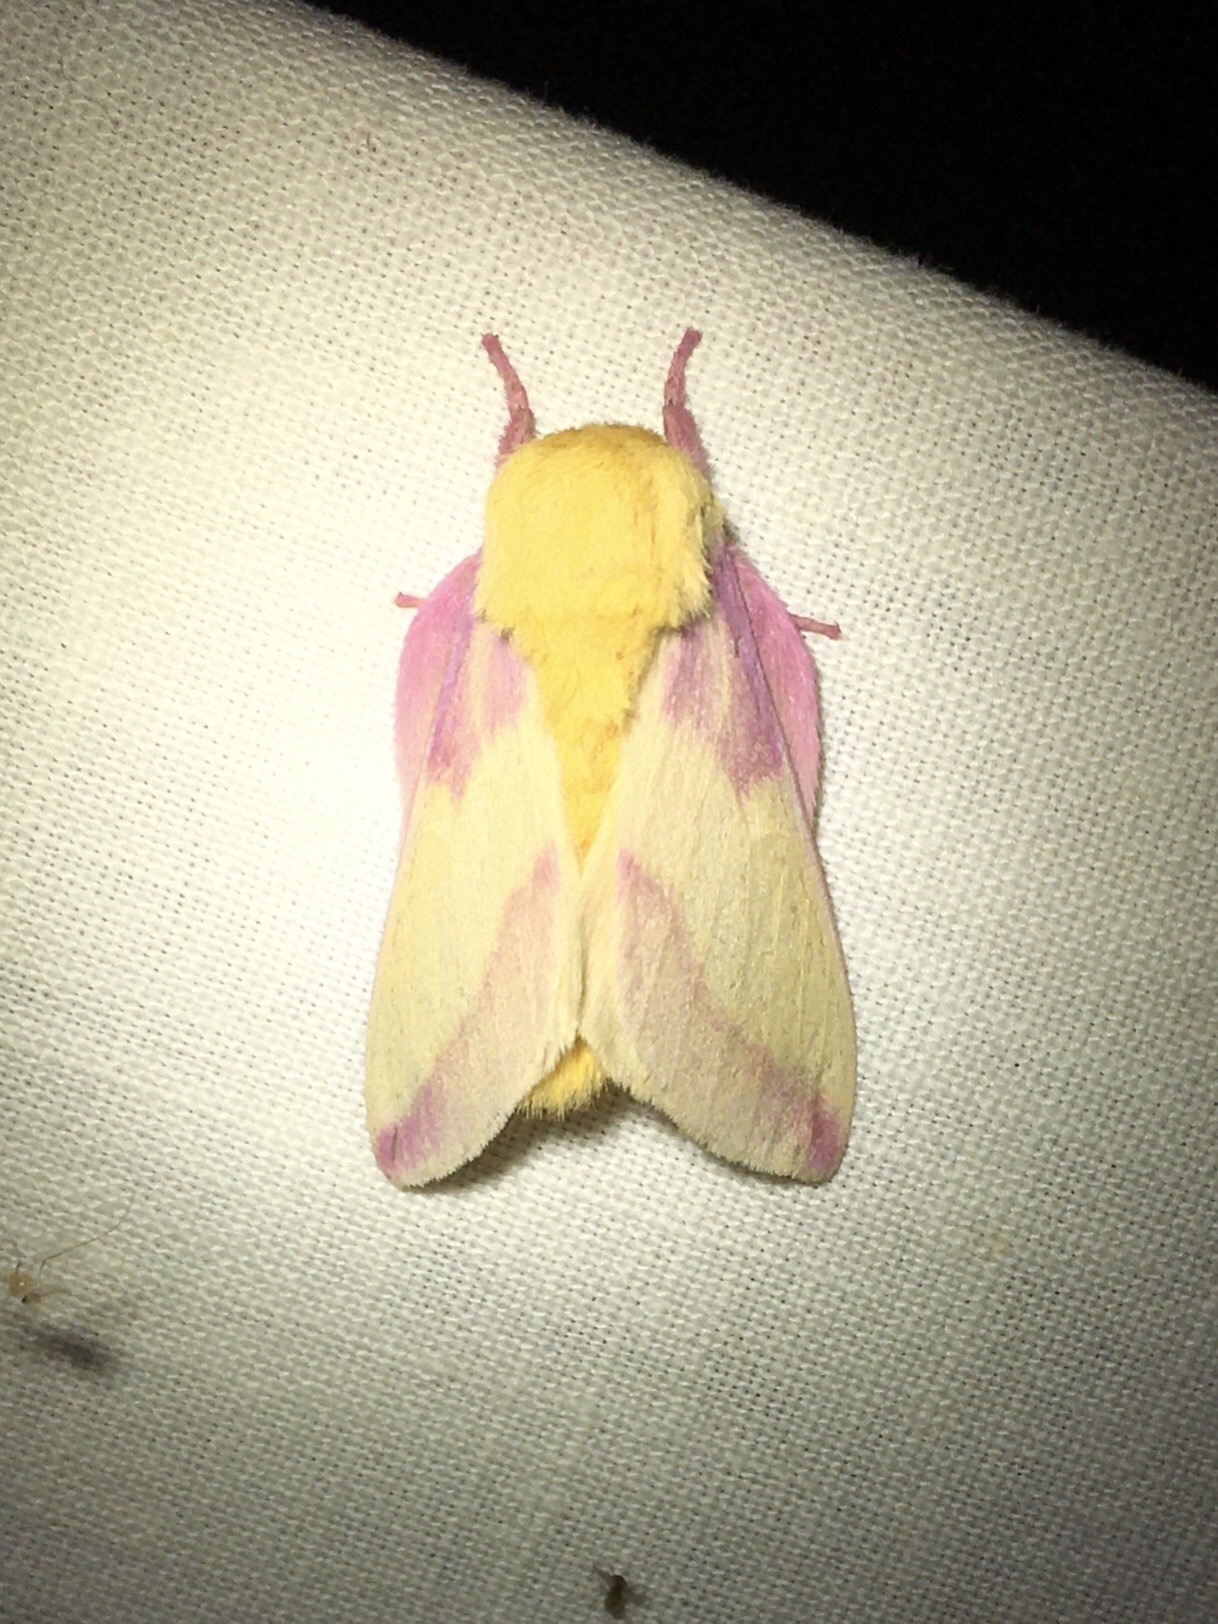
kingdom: Animalia
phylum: Arthropoda
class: Insecta
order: Lepidoptera
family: Saturniidae
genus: Dryocampa
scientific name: Dryocampa rubicunda
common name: Rosy maple moth
